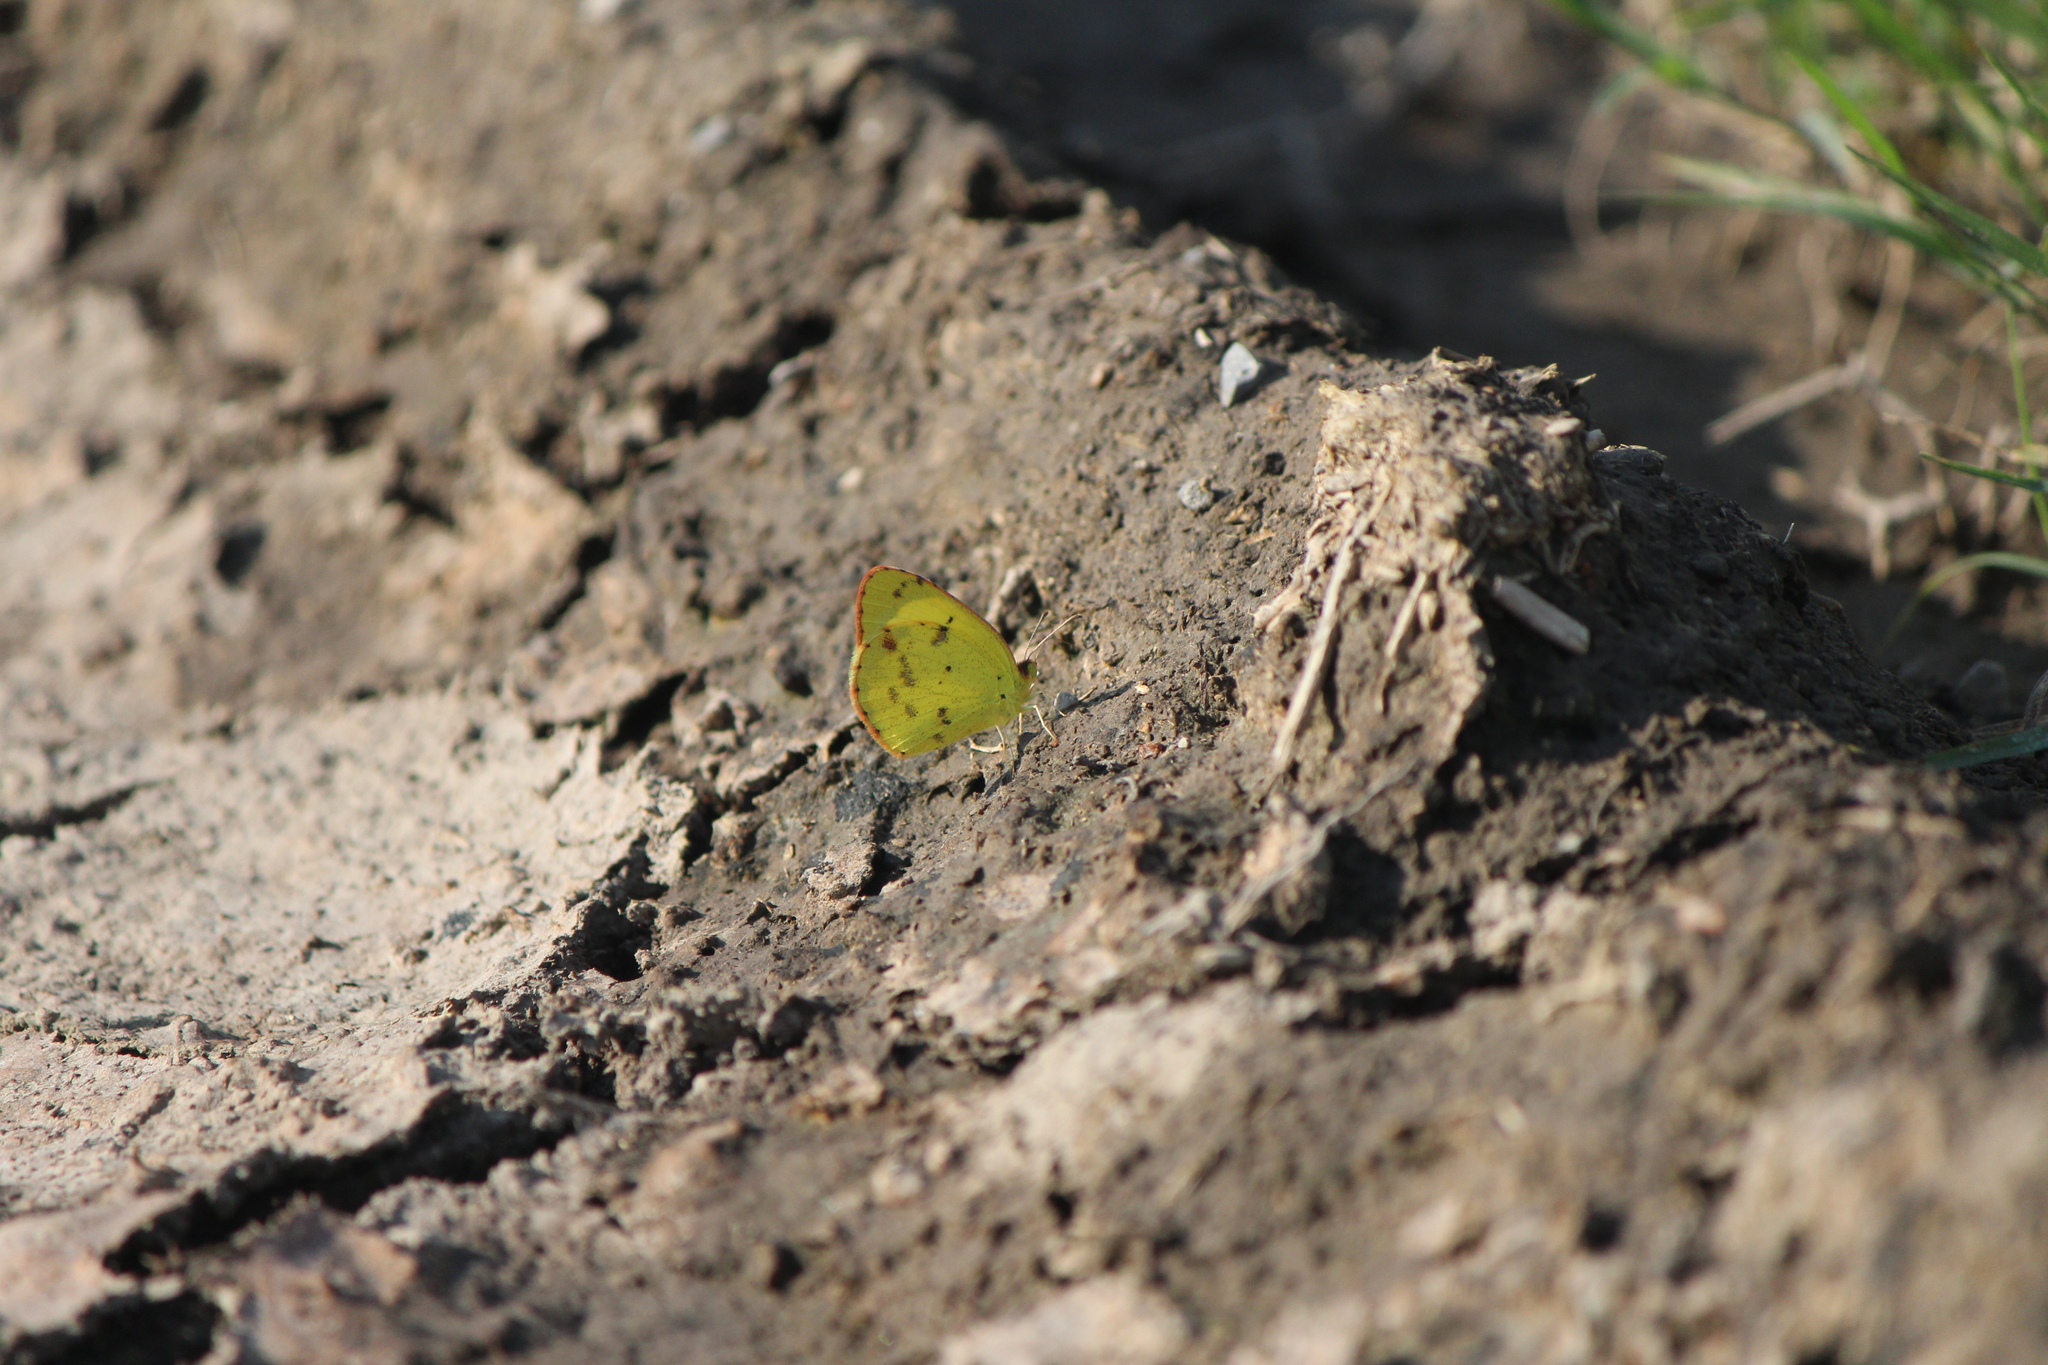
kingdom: Animalia
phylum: Arthropoda
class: Insecta
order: Lepidoptera
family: Pieridae
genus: Pyrisitia
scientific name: Pyrisitia lisa
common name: Little yellow
